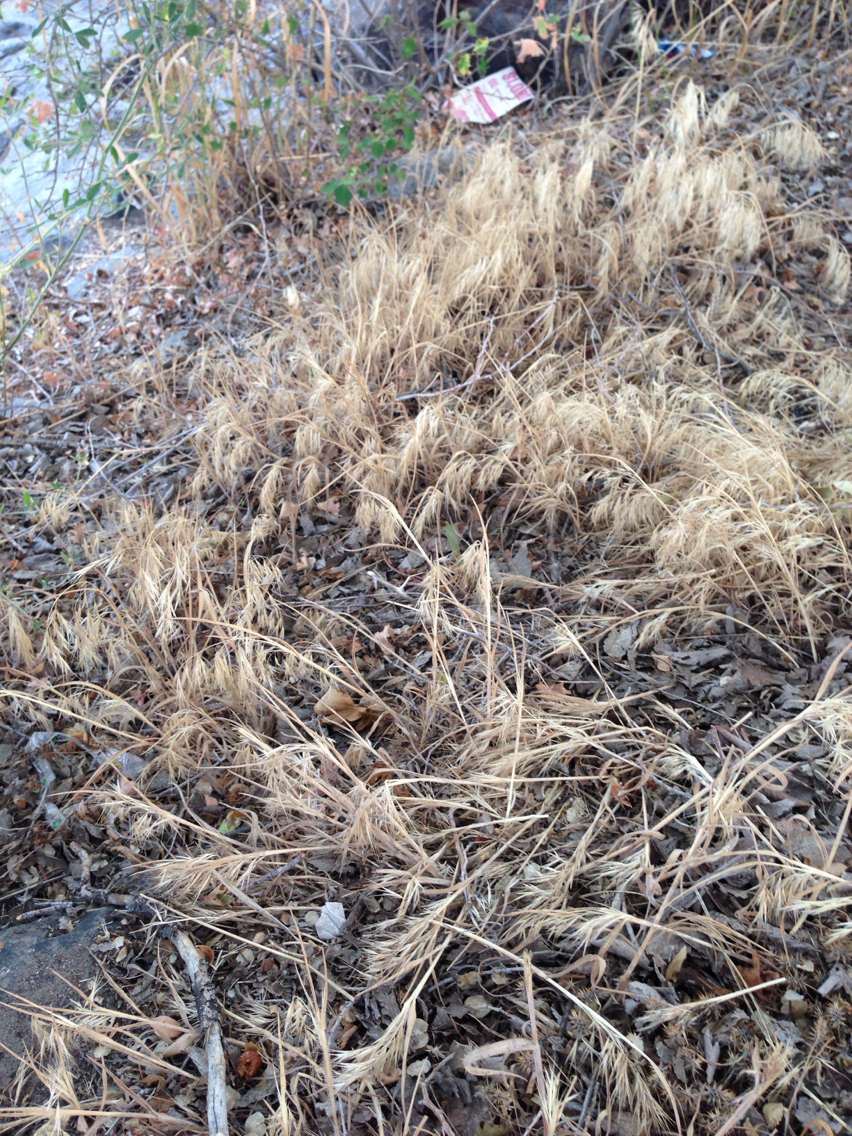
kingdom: Plantae
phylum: Tracheophyta
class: Liliopsida
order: Poales
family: Poaceae
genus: Bromus
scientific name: Bromus tectorum
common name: Cheatgrass
